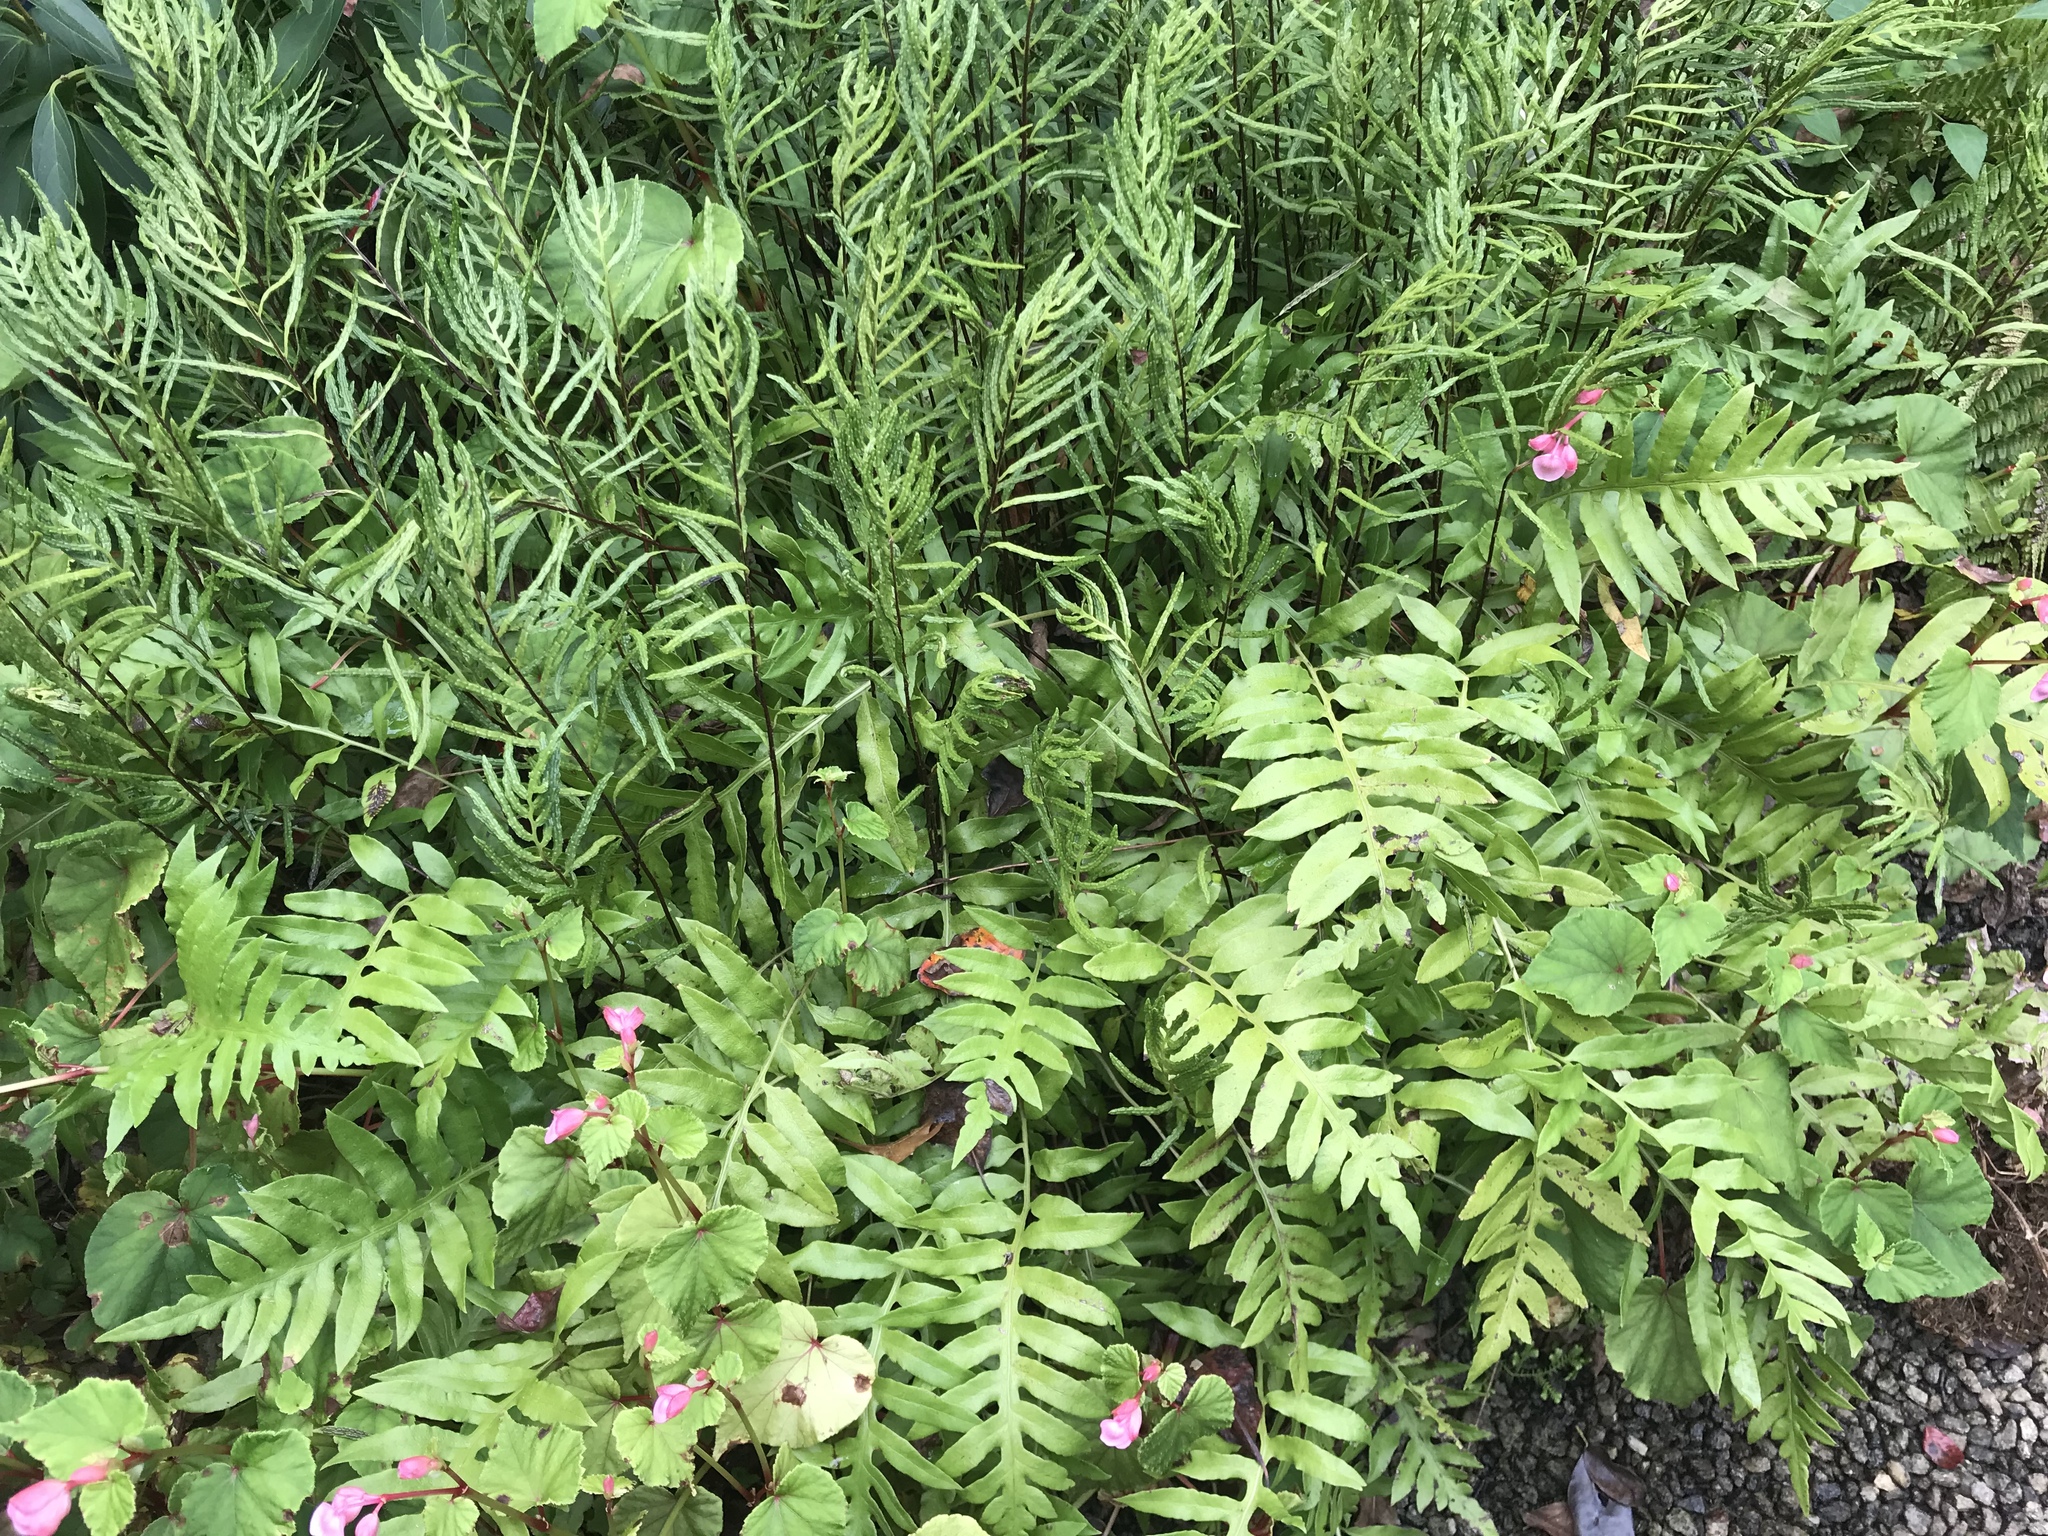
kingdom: Plantae
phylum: Tracheophyta
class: Polypodiopsida
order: Polypodiales
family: Blechnaceae
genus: Lorinseria
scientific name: Lorinseria areolata
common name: Dwarf chain fern
